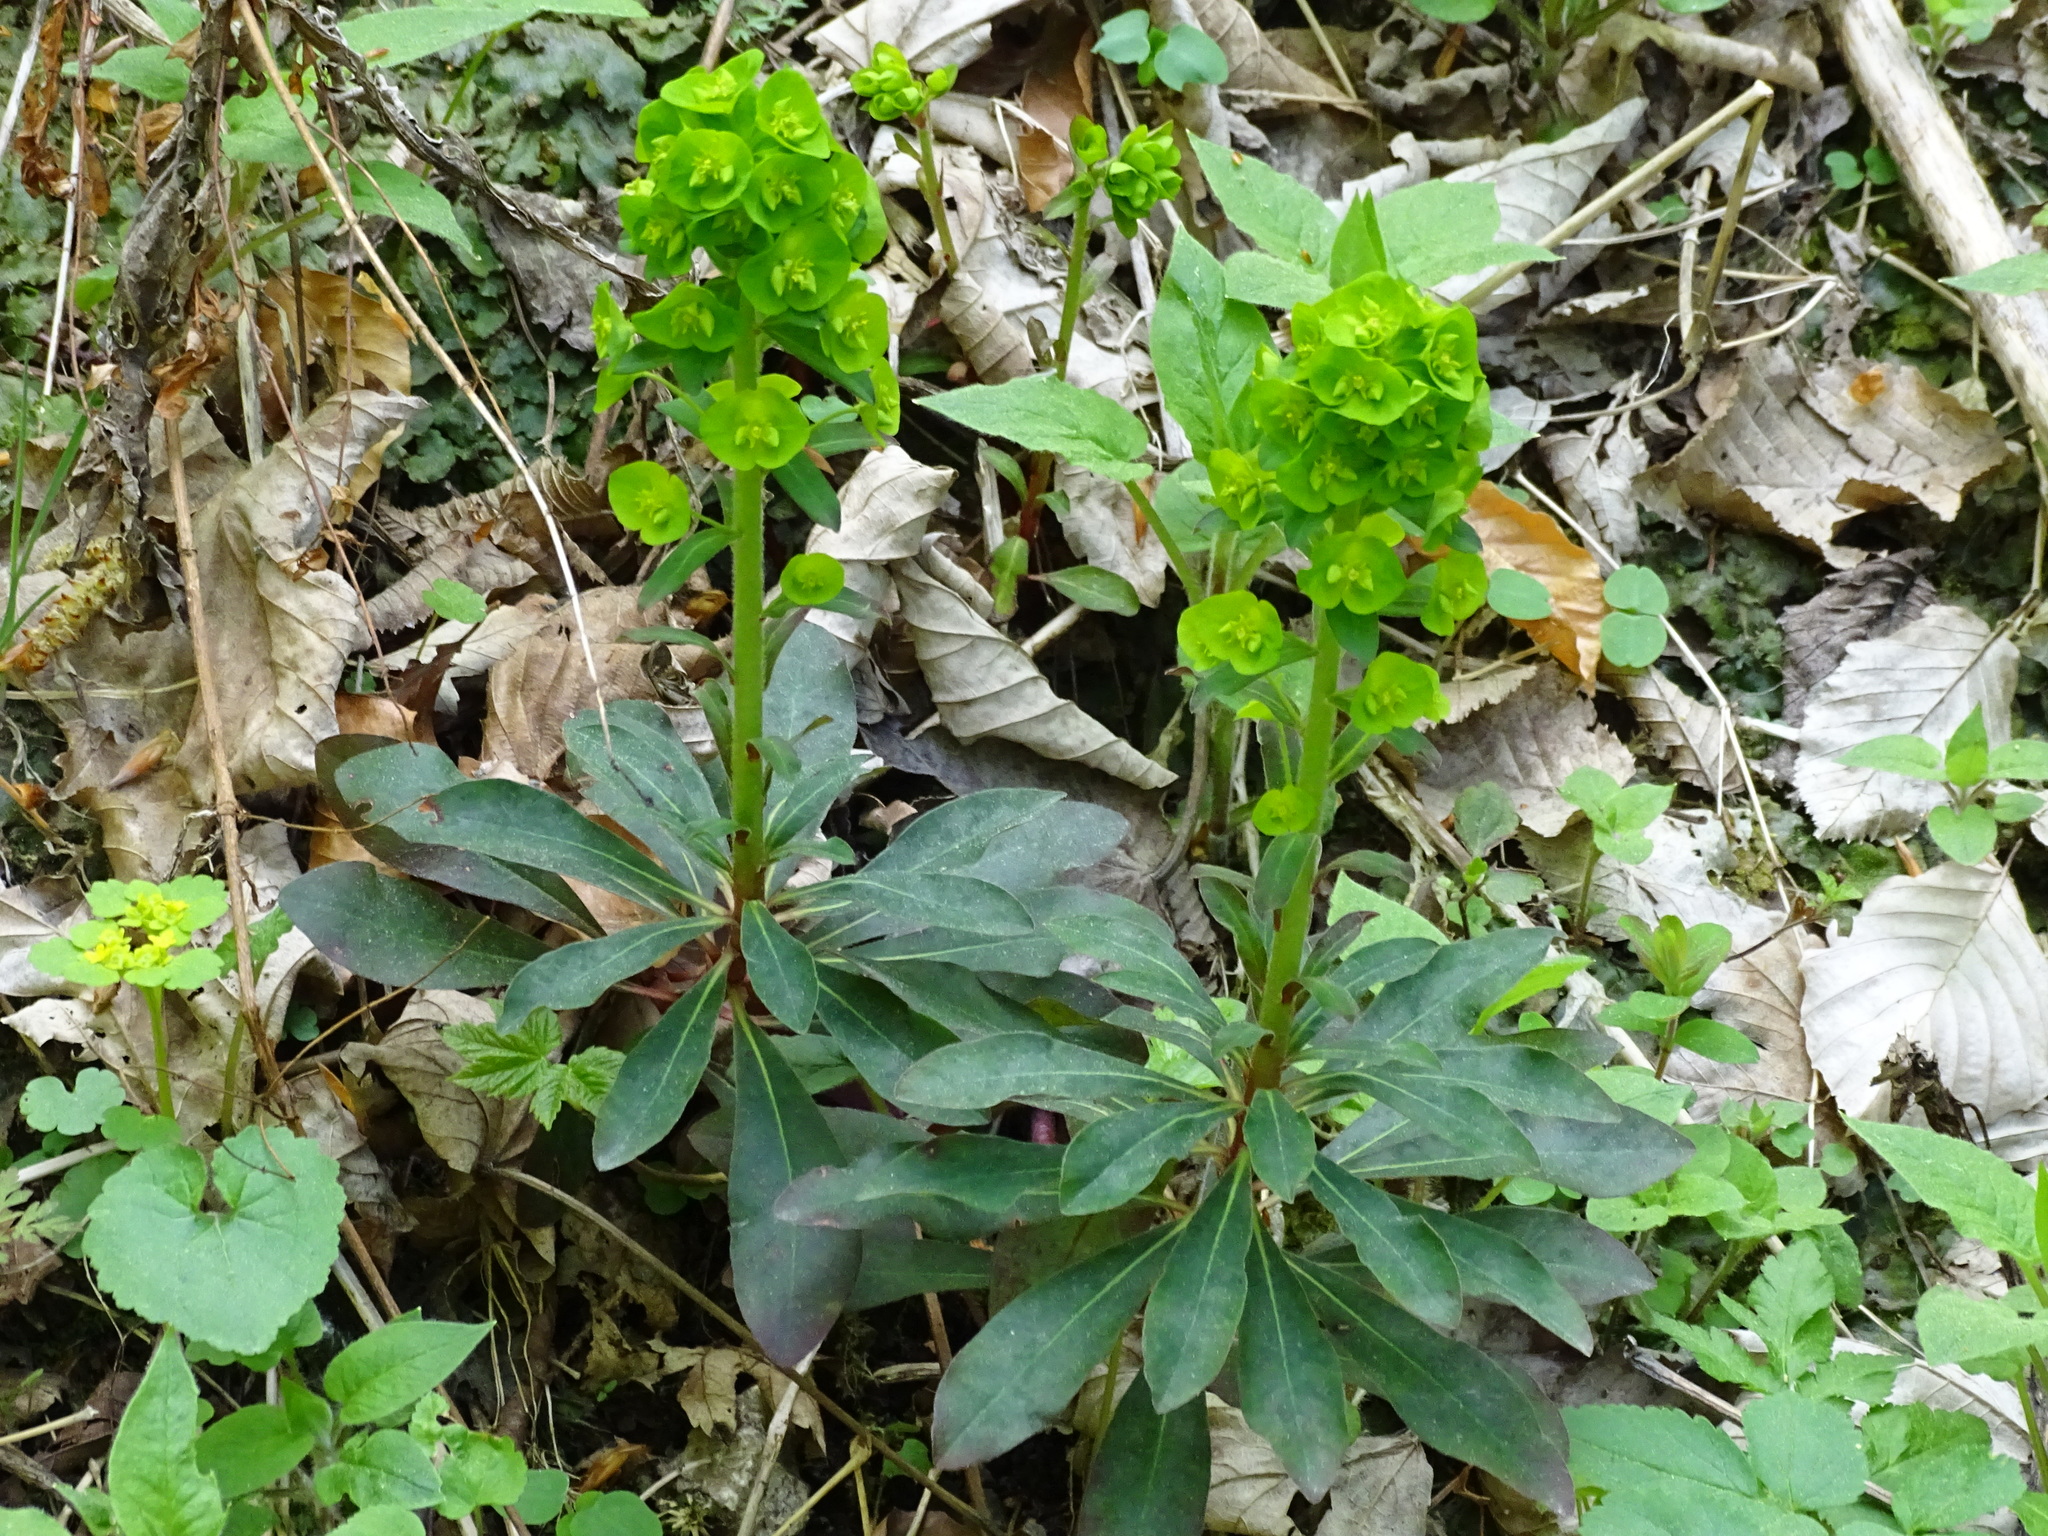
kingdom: Plantae
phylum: Tracheophyta
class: Magnoliopsida
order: Malpighiales
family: Euphorbiaceae
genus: Euphorbia
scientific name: Euphorbia amygdaloides
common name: Wood spurge
